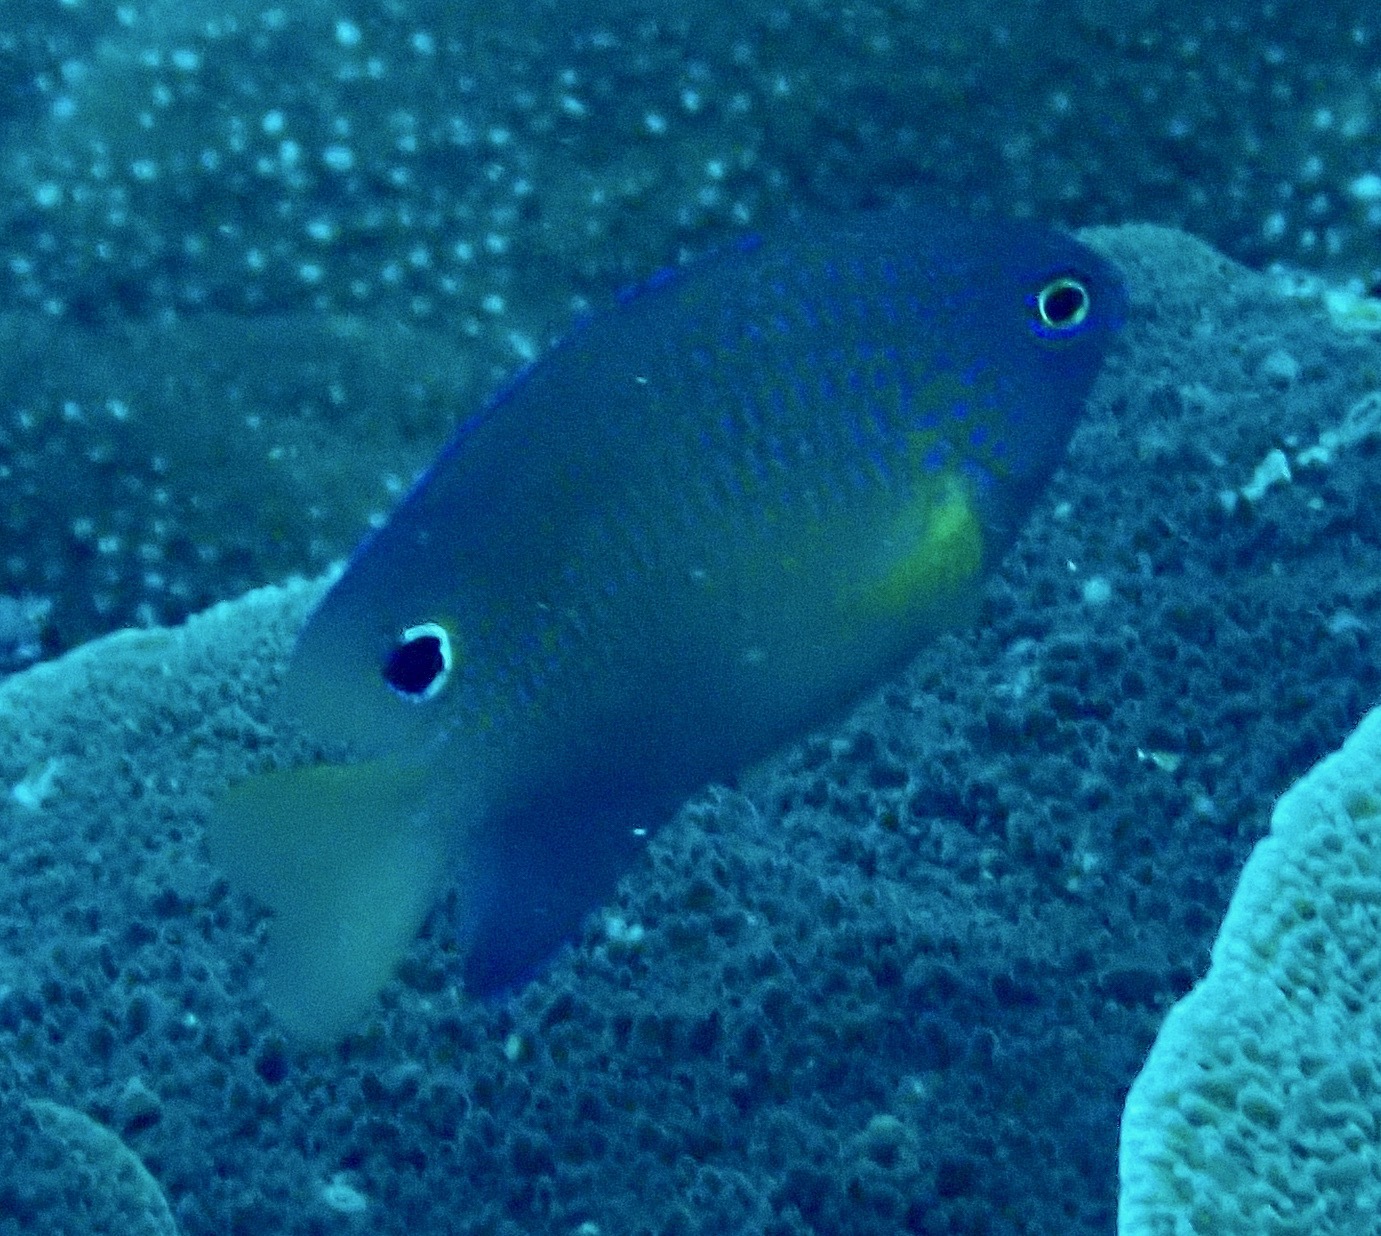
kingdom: Animalia
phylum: Chordata
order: Perciformes
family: Pomacentridae
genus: Pomacentrus
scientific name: Pomacentrus vaiuli
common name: Princess damsel
